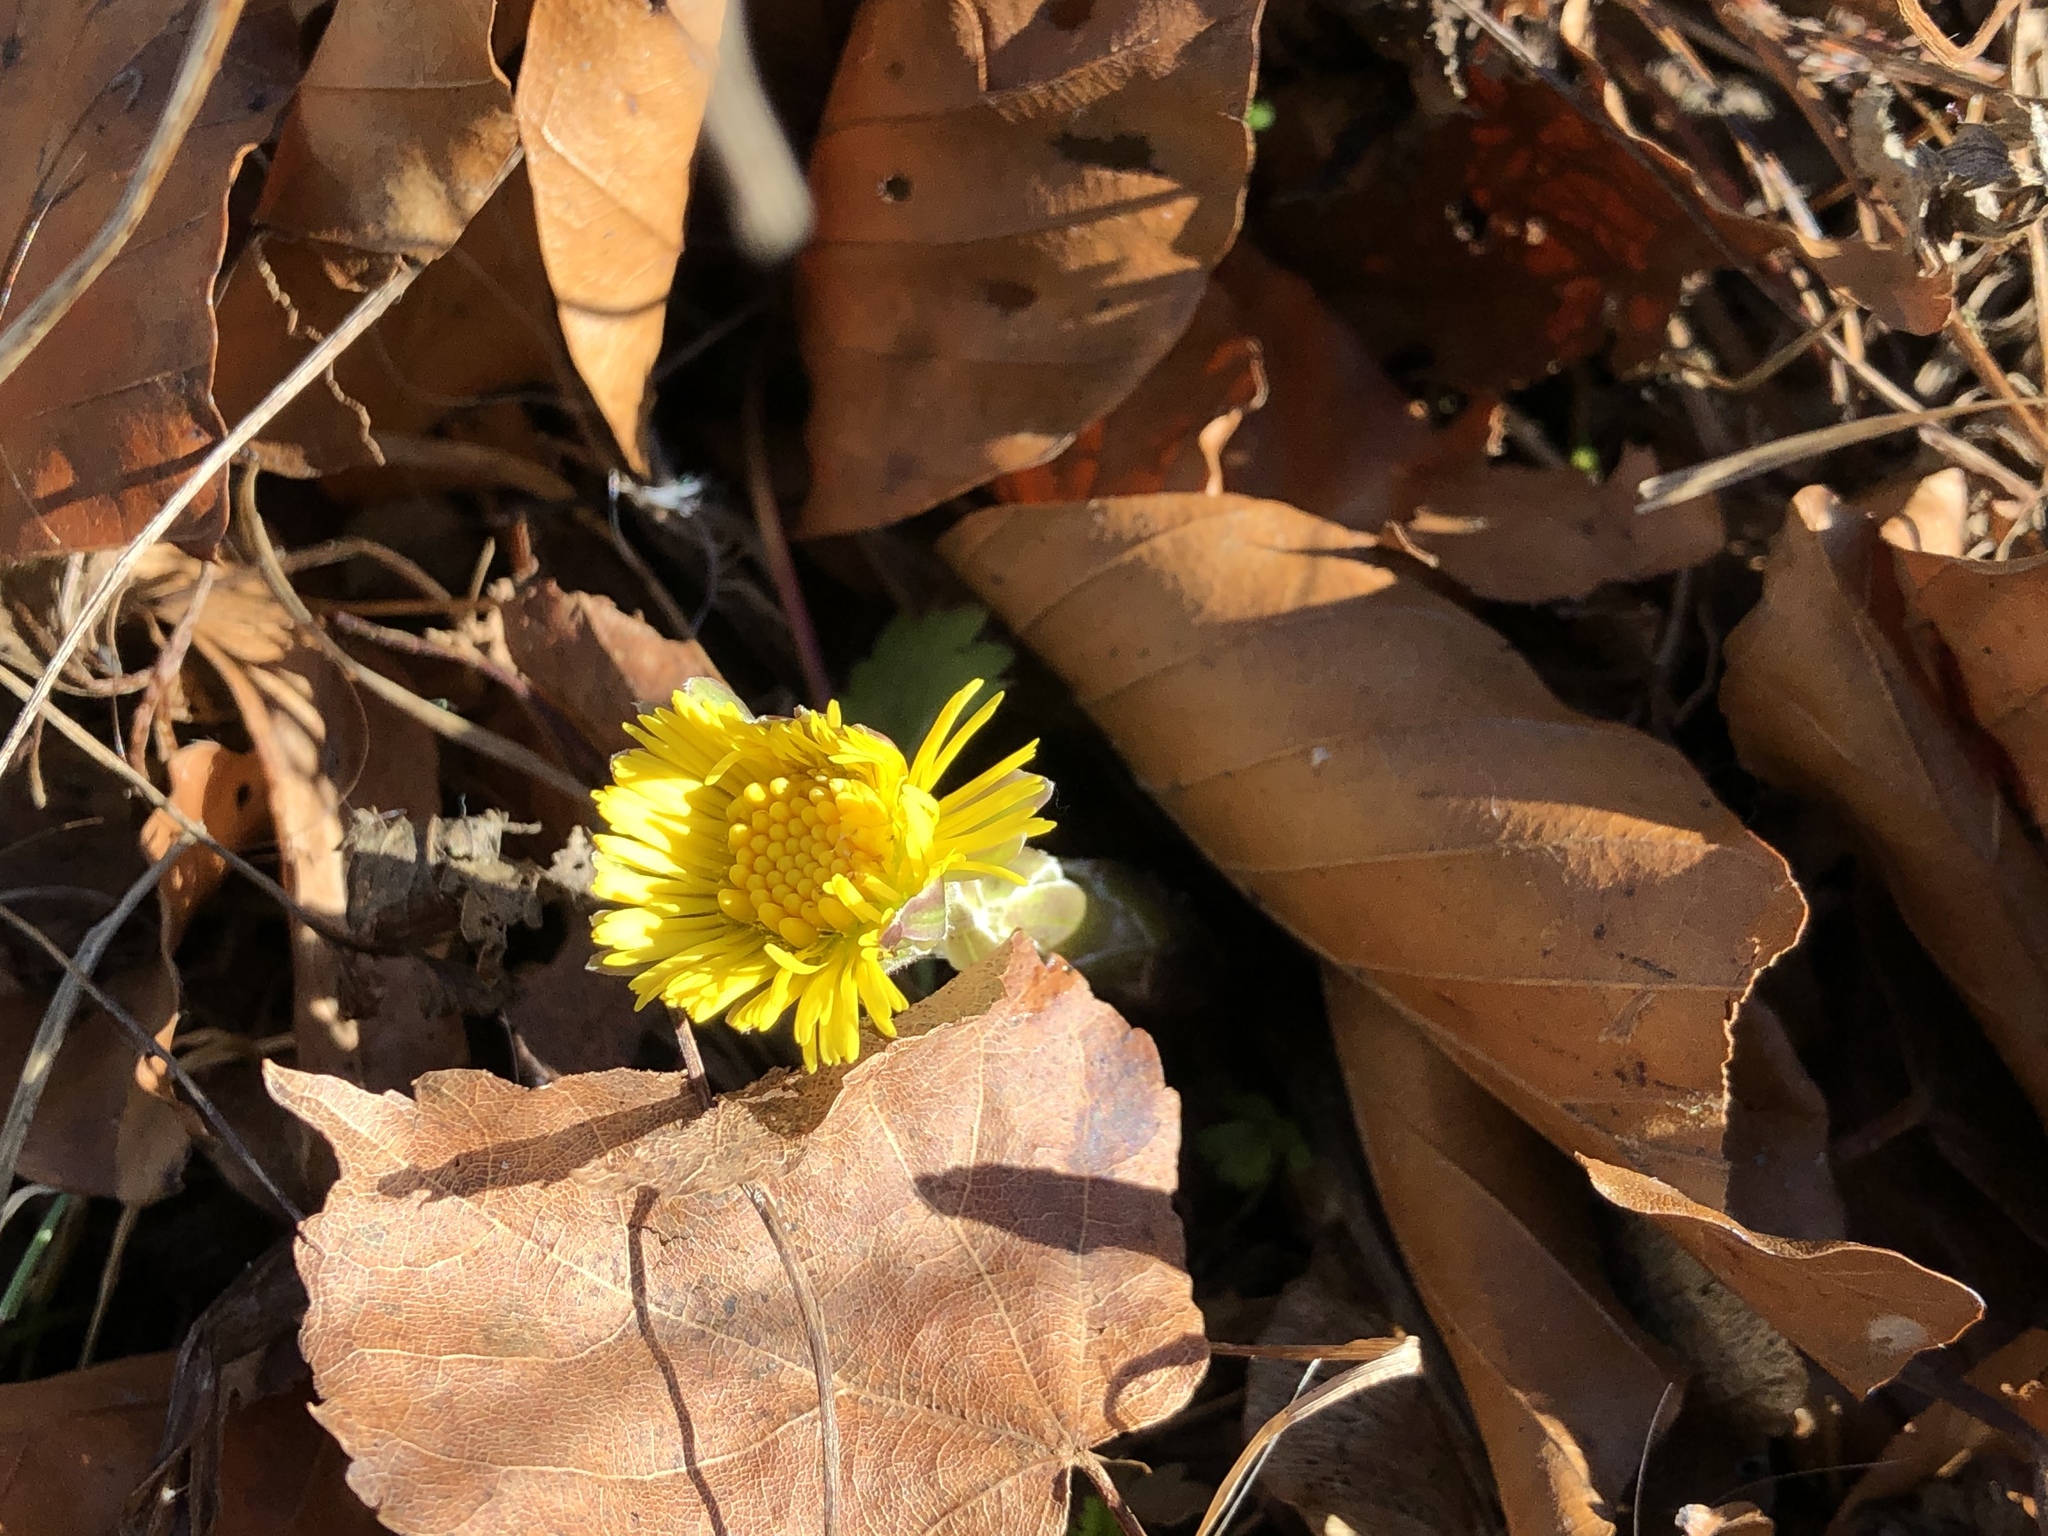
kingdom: Plantae
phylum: Tracheophyta
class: Magnoliopsida
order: Asterales
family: Asteraceae
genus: Tussilago
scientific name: Tussilago farfara
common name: Coltsfoot
